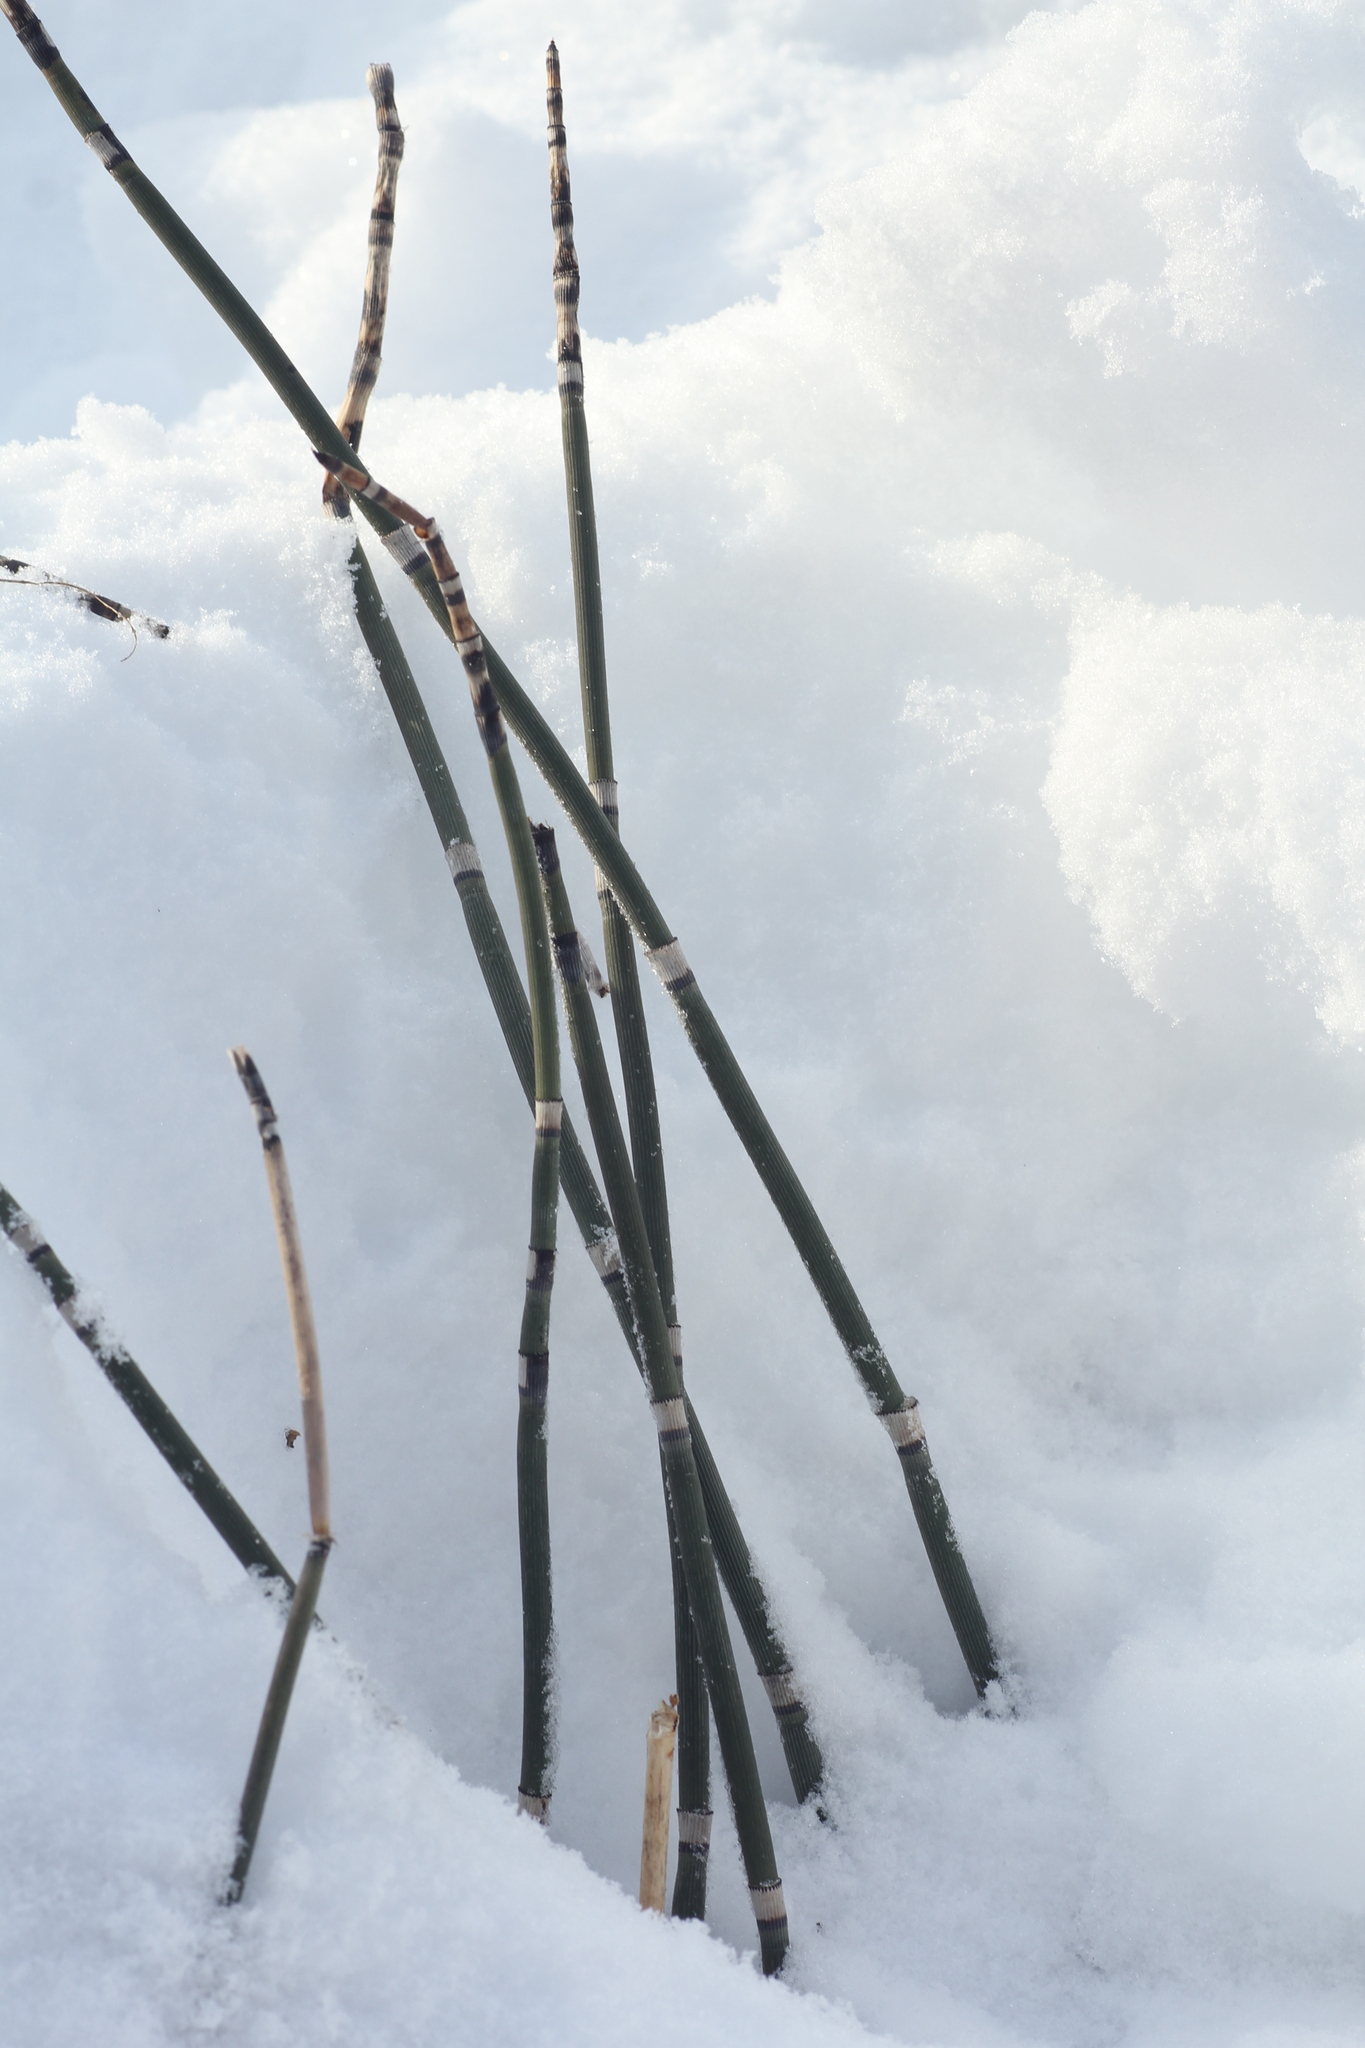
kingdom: Plantae
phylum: Tracheophyta
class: Polypodiopsida
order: Equisetales
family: Equisetaceae
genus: Equisetum
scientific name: Equisetum hyemale
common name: Rough horsetail
